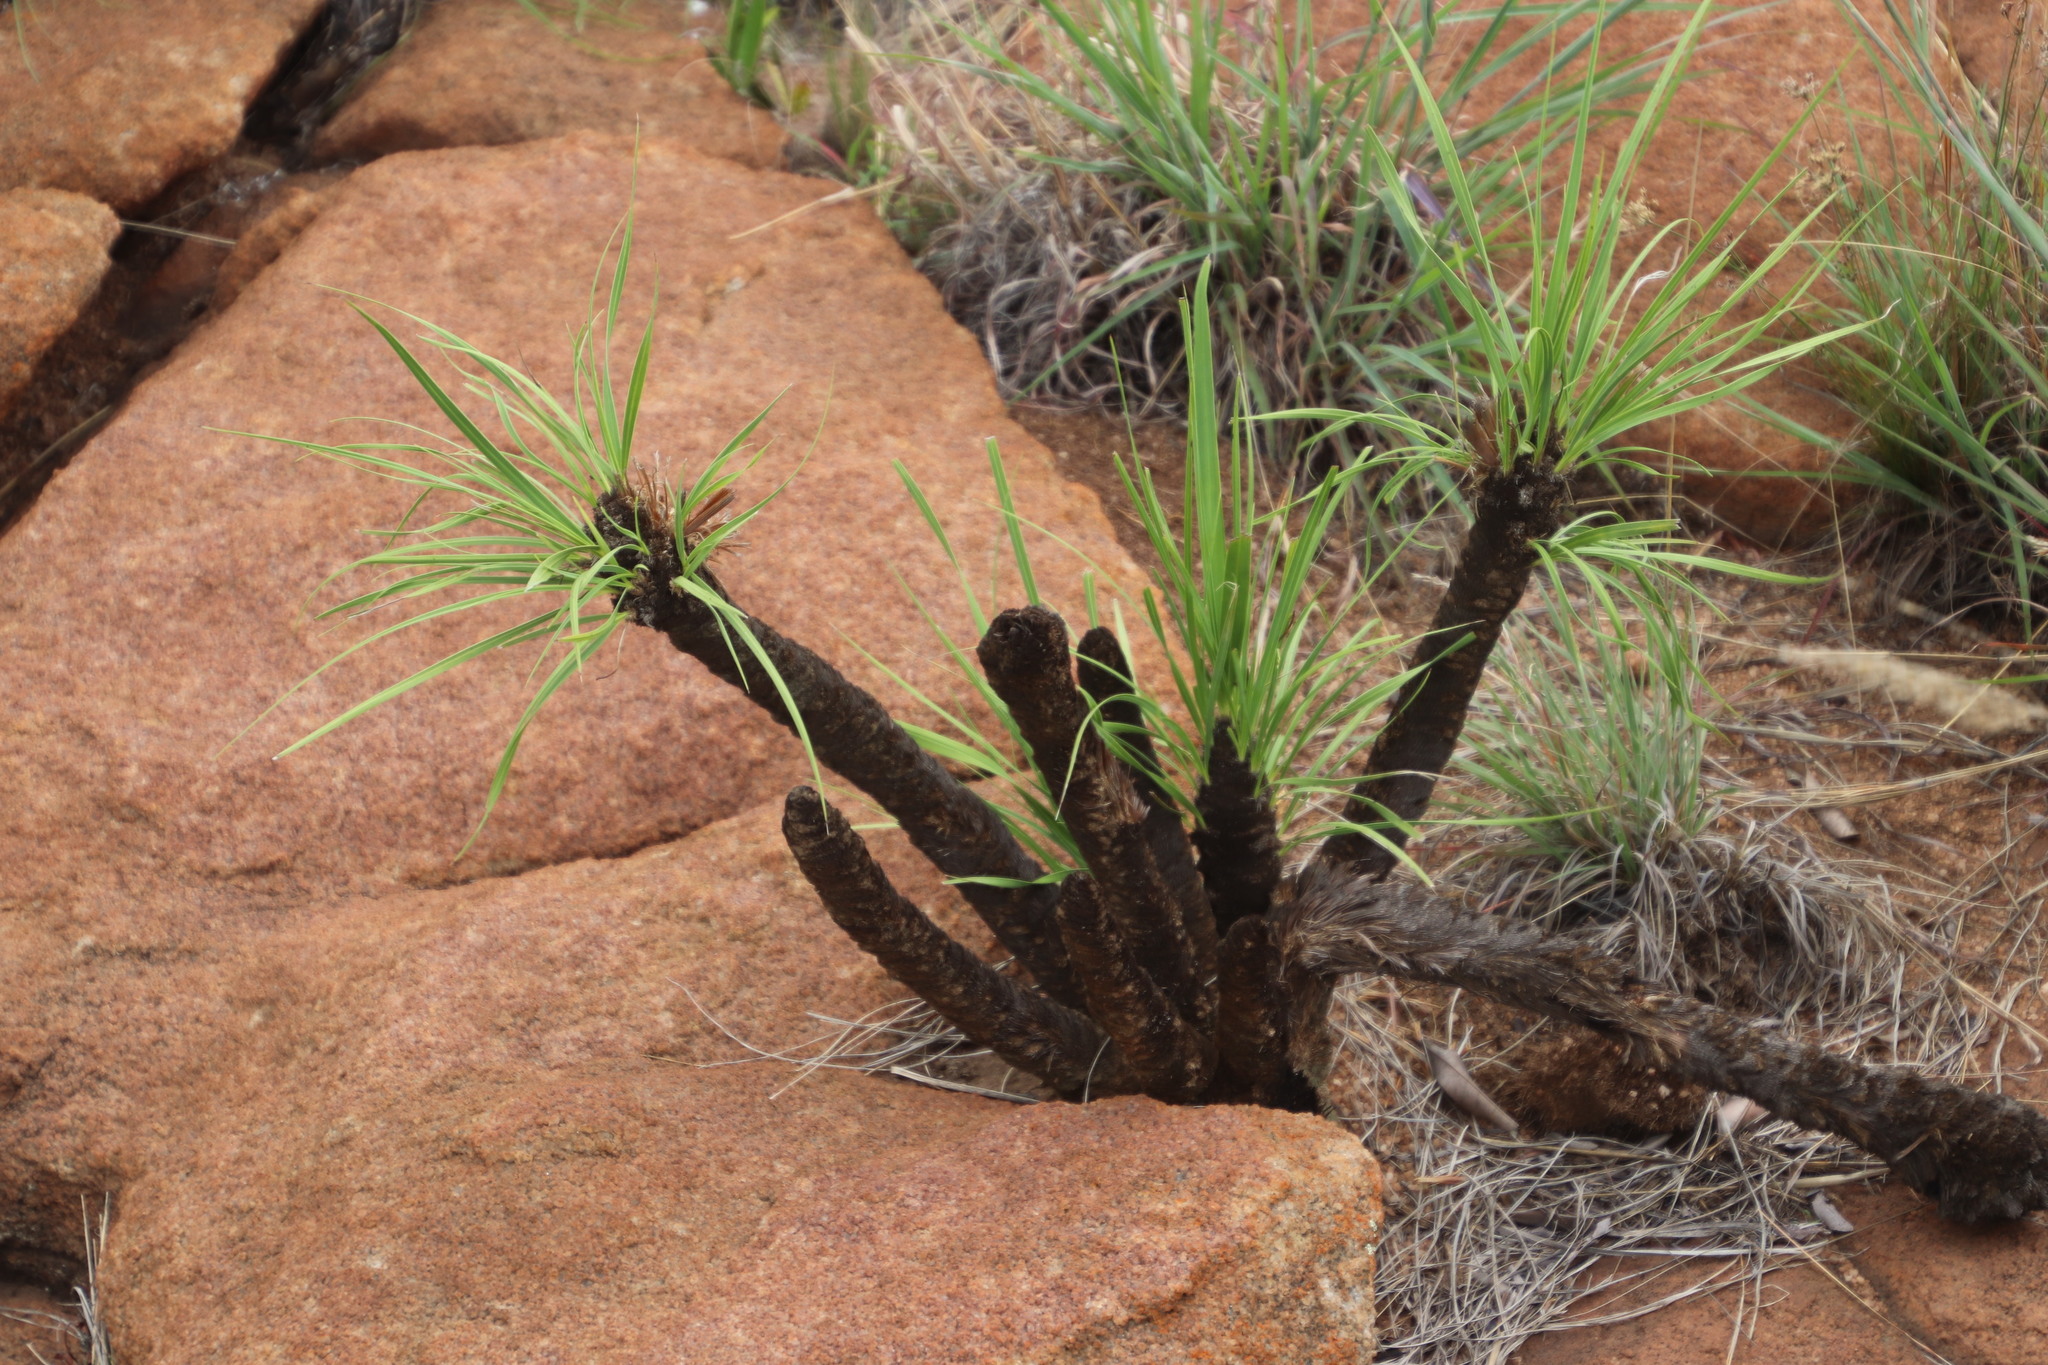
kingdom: Plantae
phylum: Tracheophyta
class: Liliopsida
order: Pandanales
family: Velloziaceae
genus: Xerophyta
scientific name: Xerophyta retinervis
